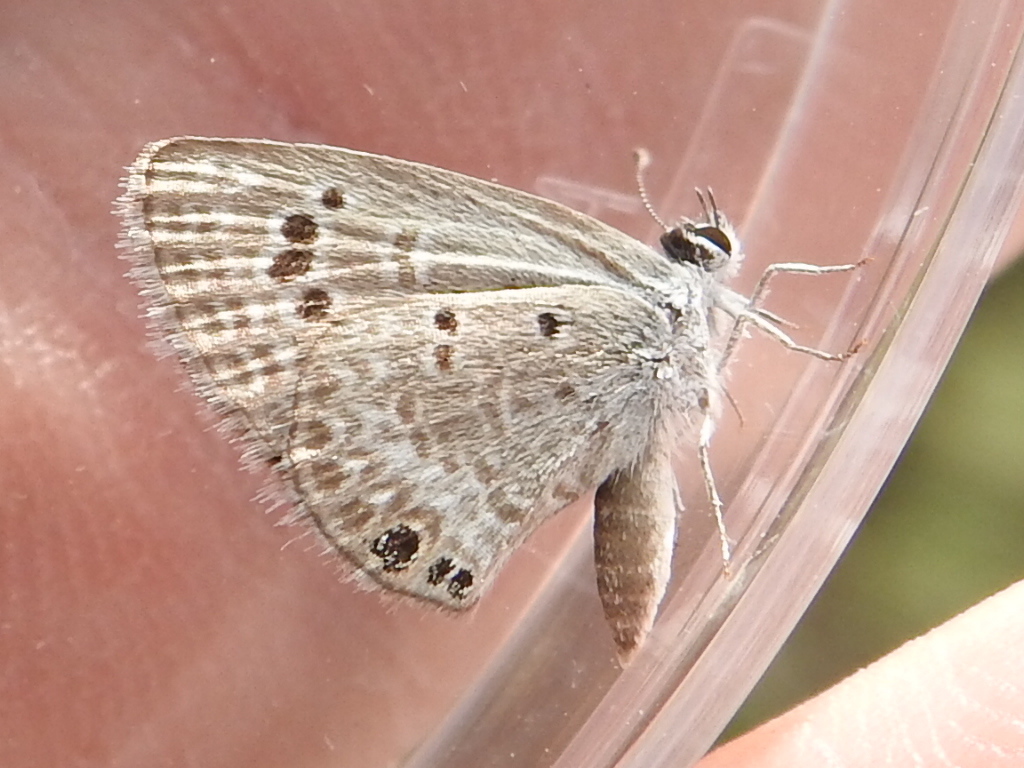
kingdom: Animalia
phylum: Arthropoda
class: Insecta
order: Lepidoptera
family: Lycaenidae
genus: Echinargus
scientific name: Echinargus isola
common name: Reakirt's blue
